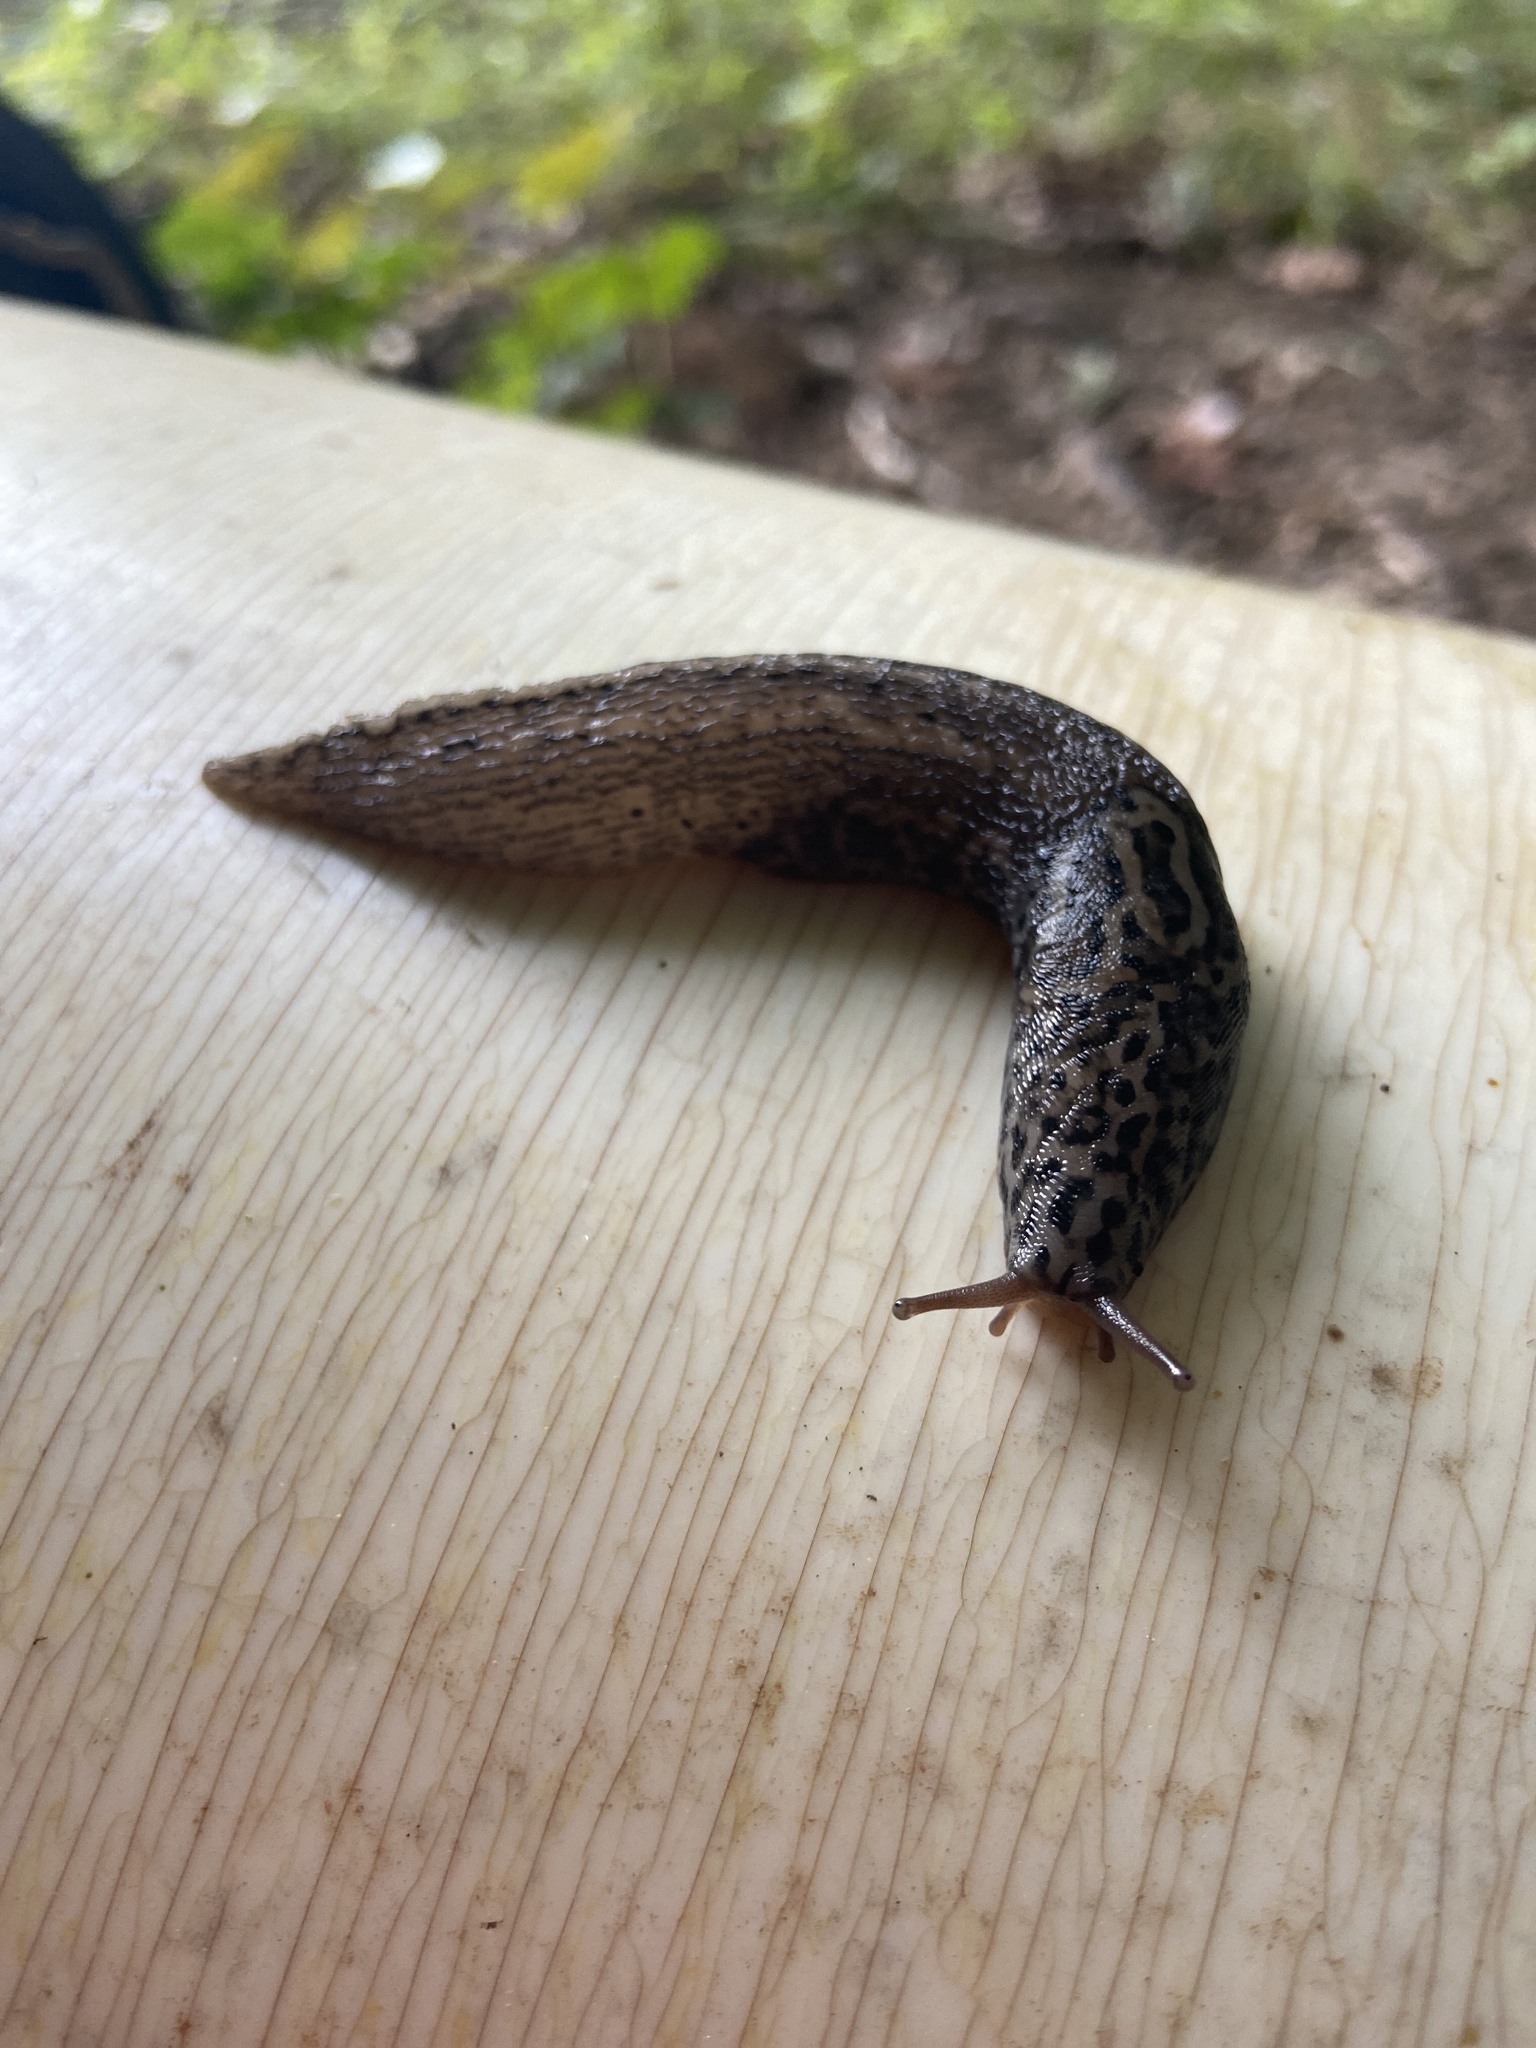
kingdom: Animalia
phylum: Mollusca
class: Gastropoda
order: Stylommatophora
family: Limacidae
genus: Limax
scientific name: Limax maximus
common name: Great grey slug
